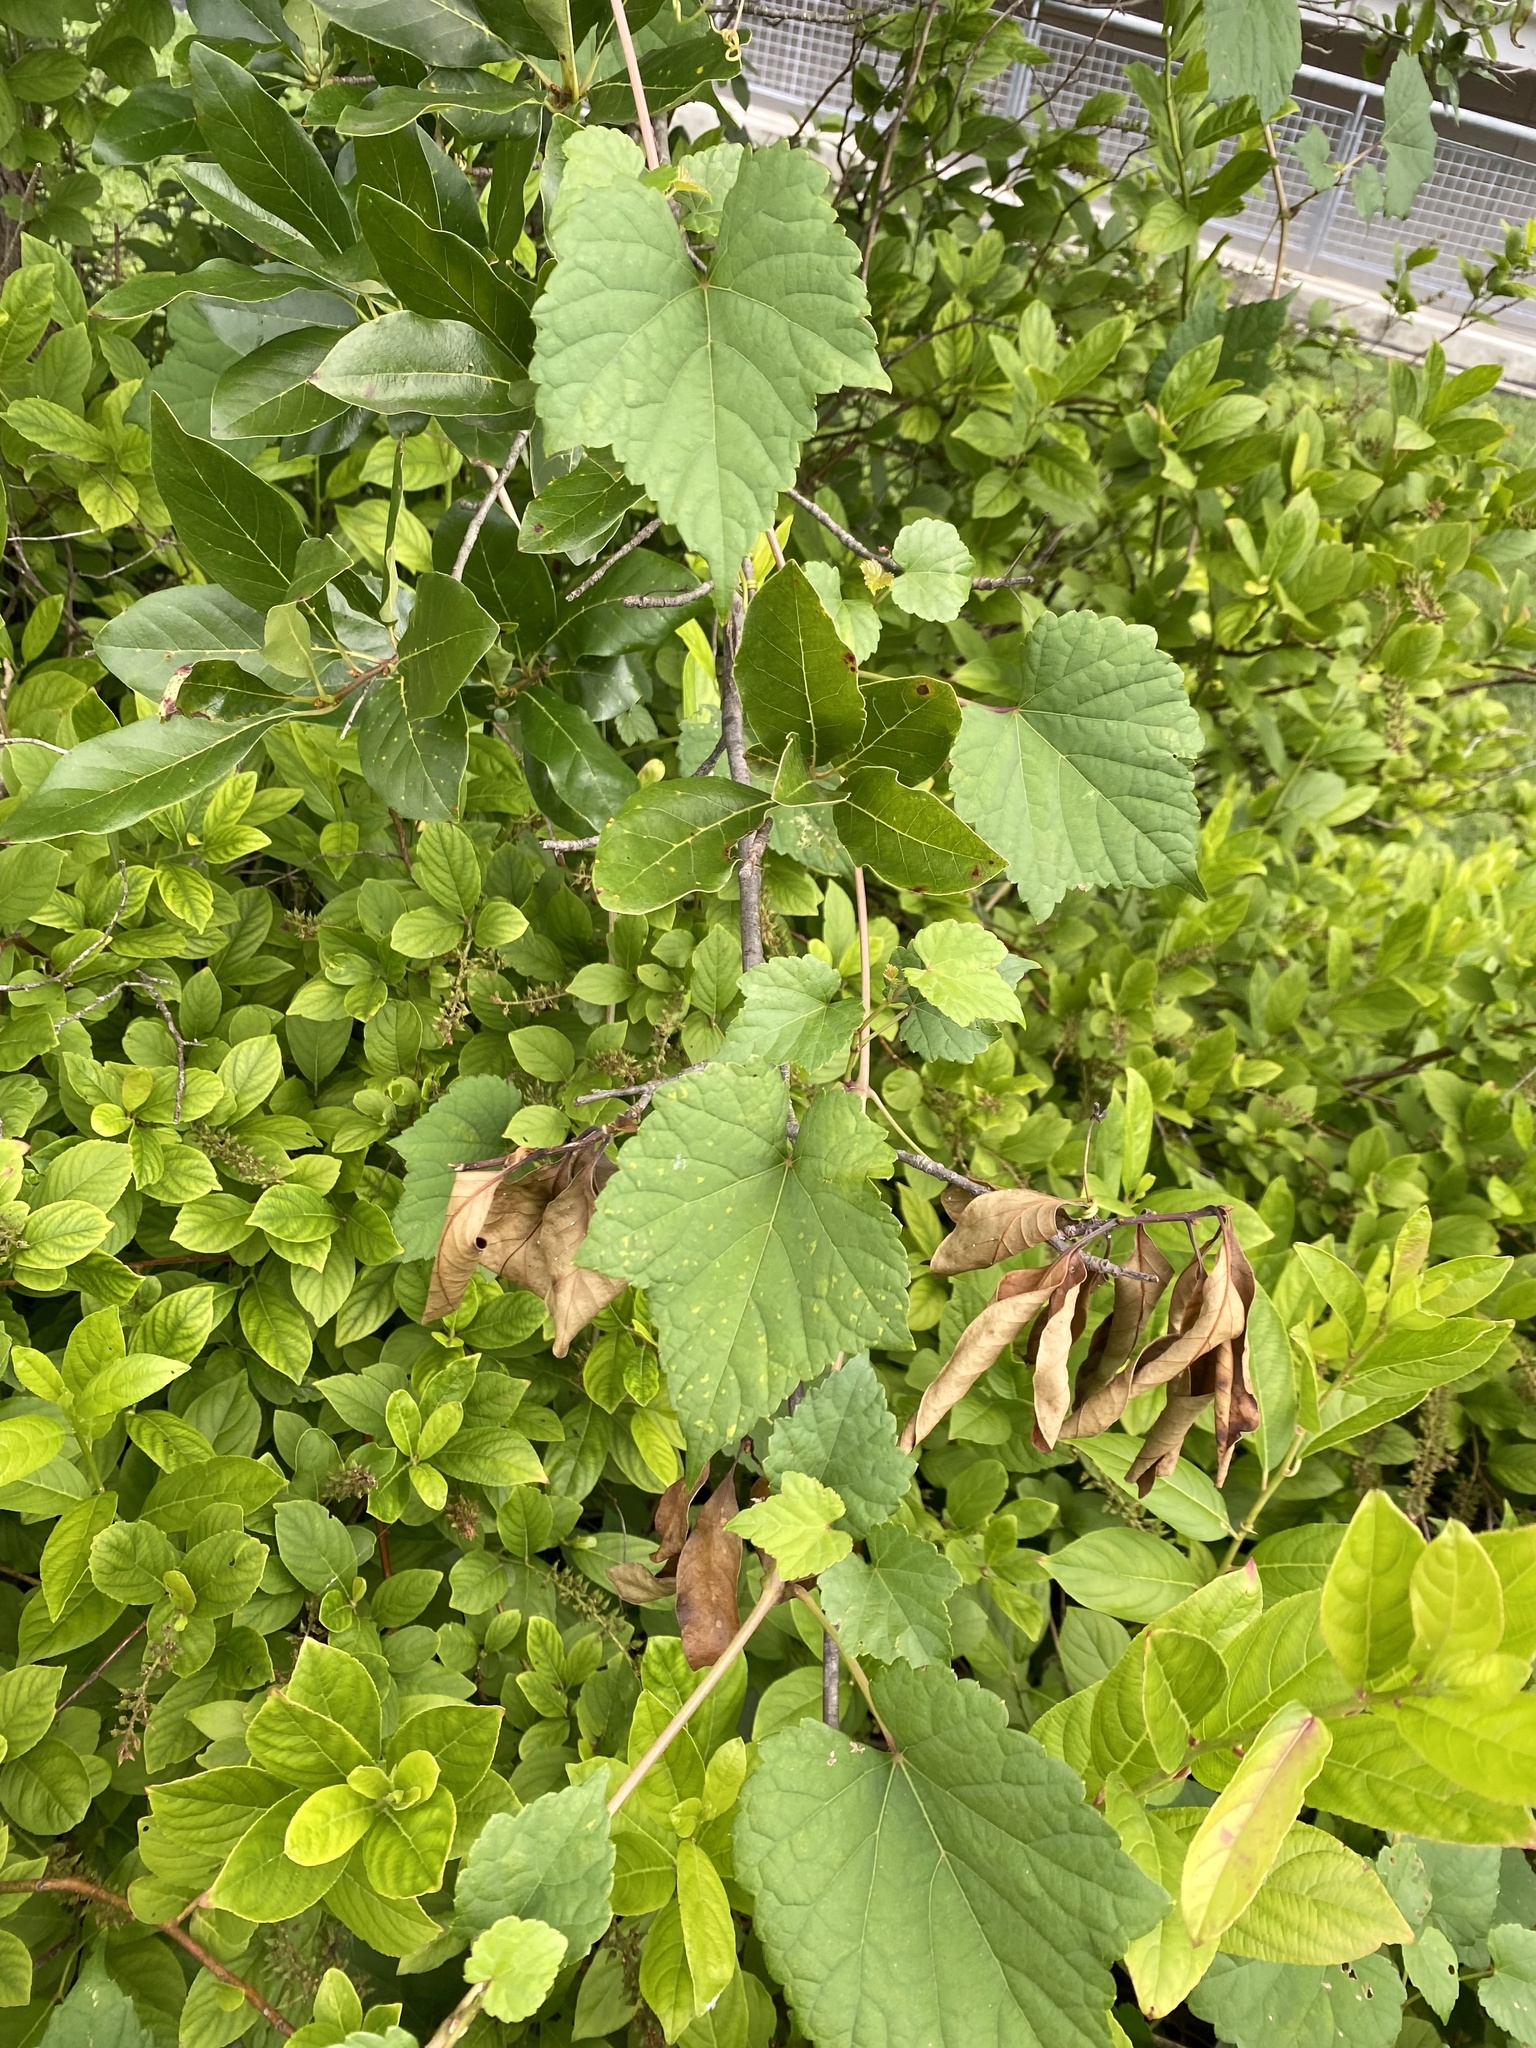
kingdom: Plantae
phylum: Tracheophyta
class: Magnoliopsida
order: Vitales
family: Vitaceae
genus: Ampelopsis
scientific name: Ampelopsis glandulosa
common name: Amur peppervine
